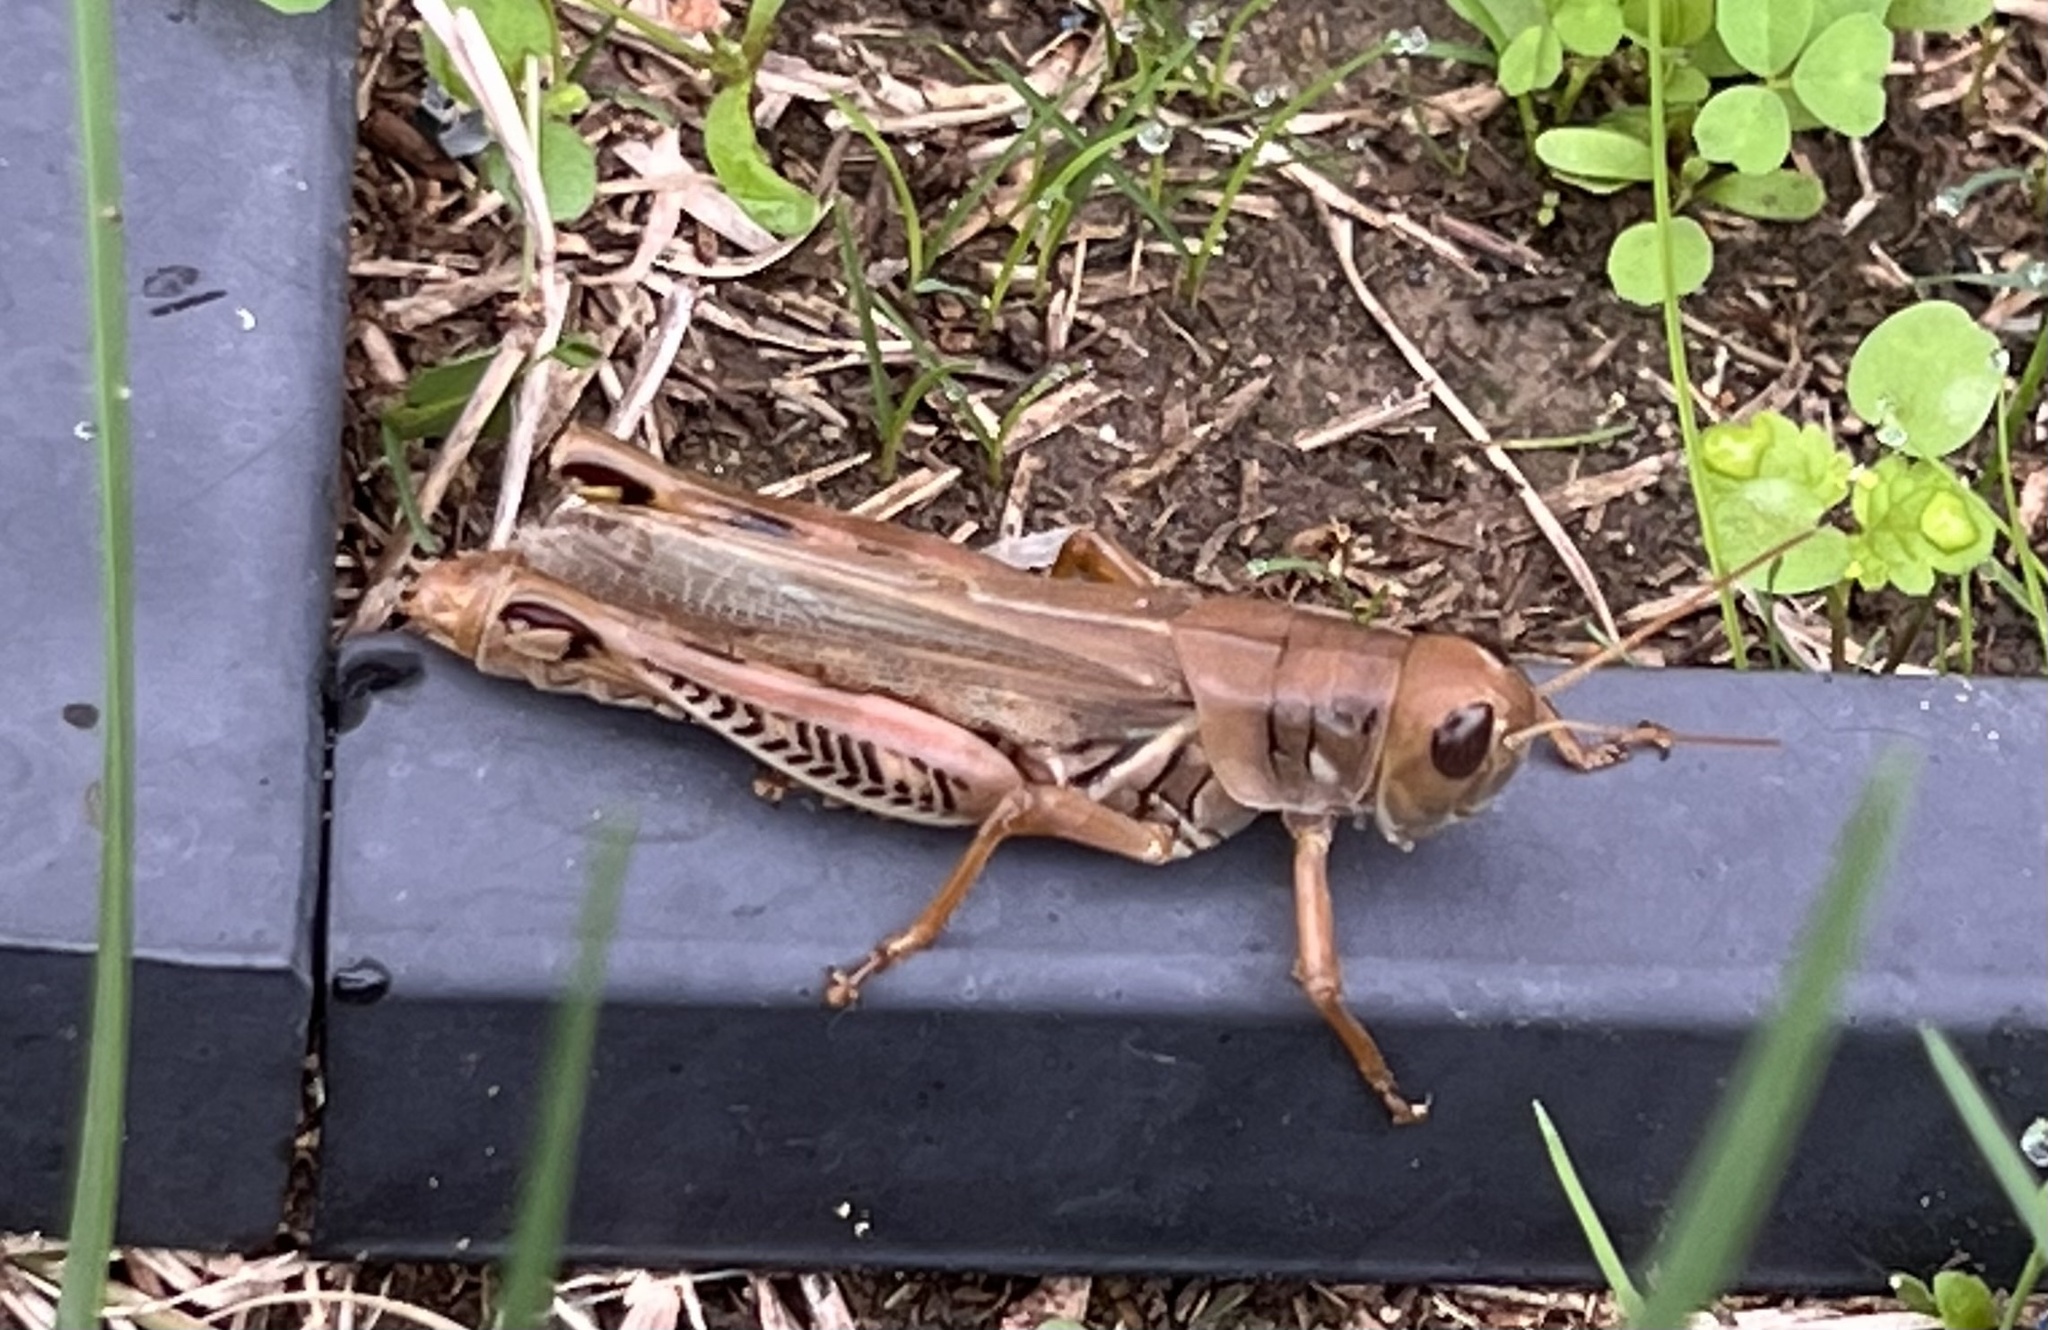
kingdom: Animalia
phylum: Arthropoda
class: Insecta
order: Orthoptera
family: Acrididae
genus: Melanoplus
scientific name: Melanoplus differentialis
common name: Differential grasshopper
